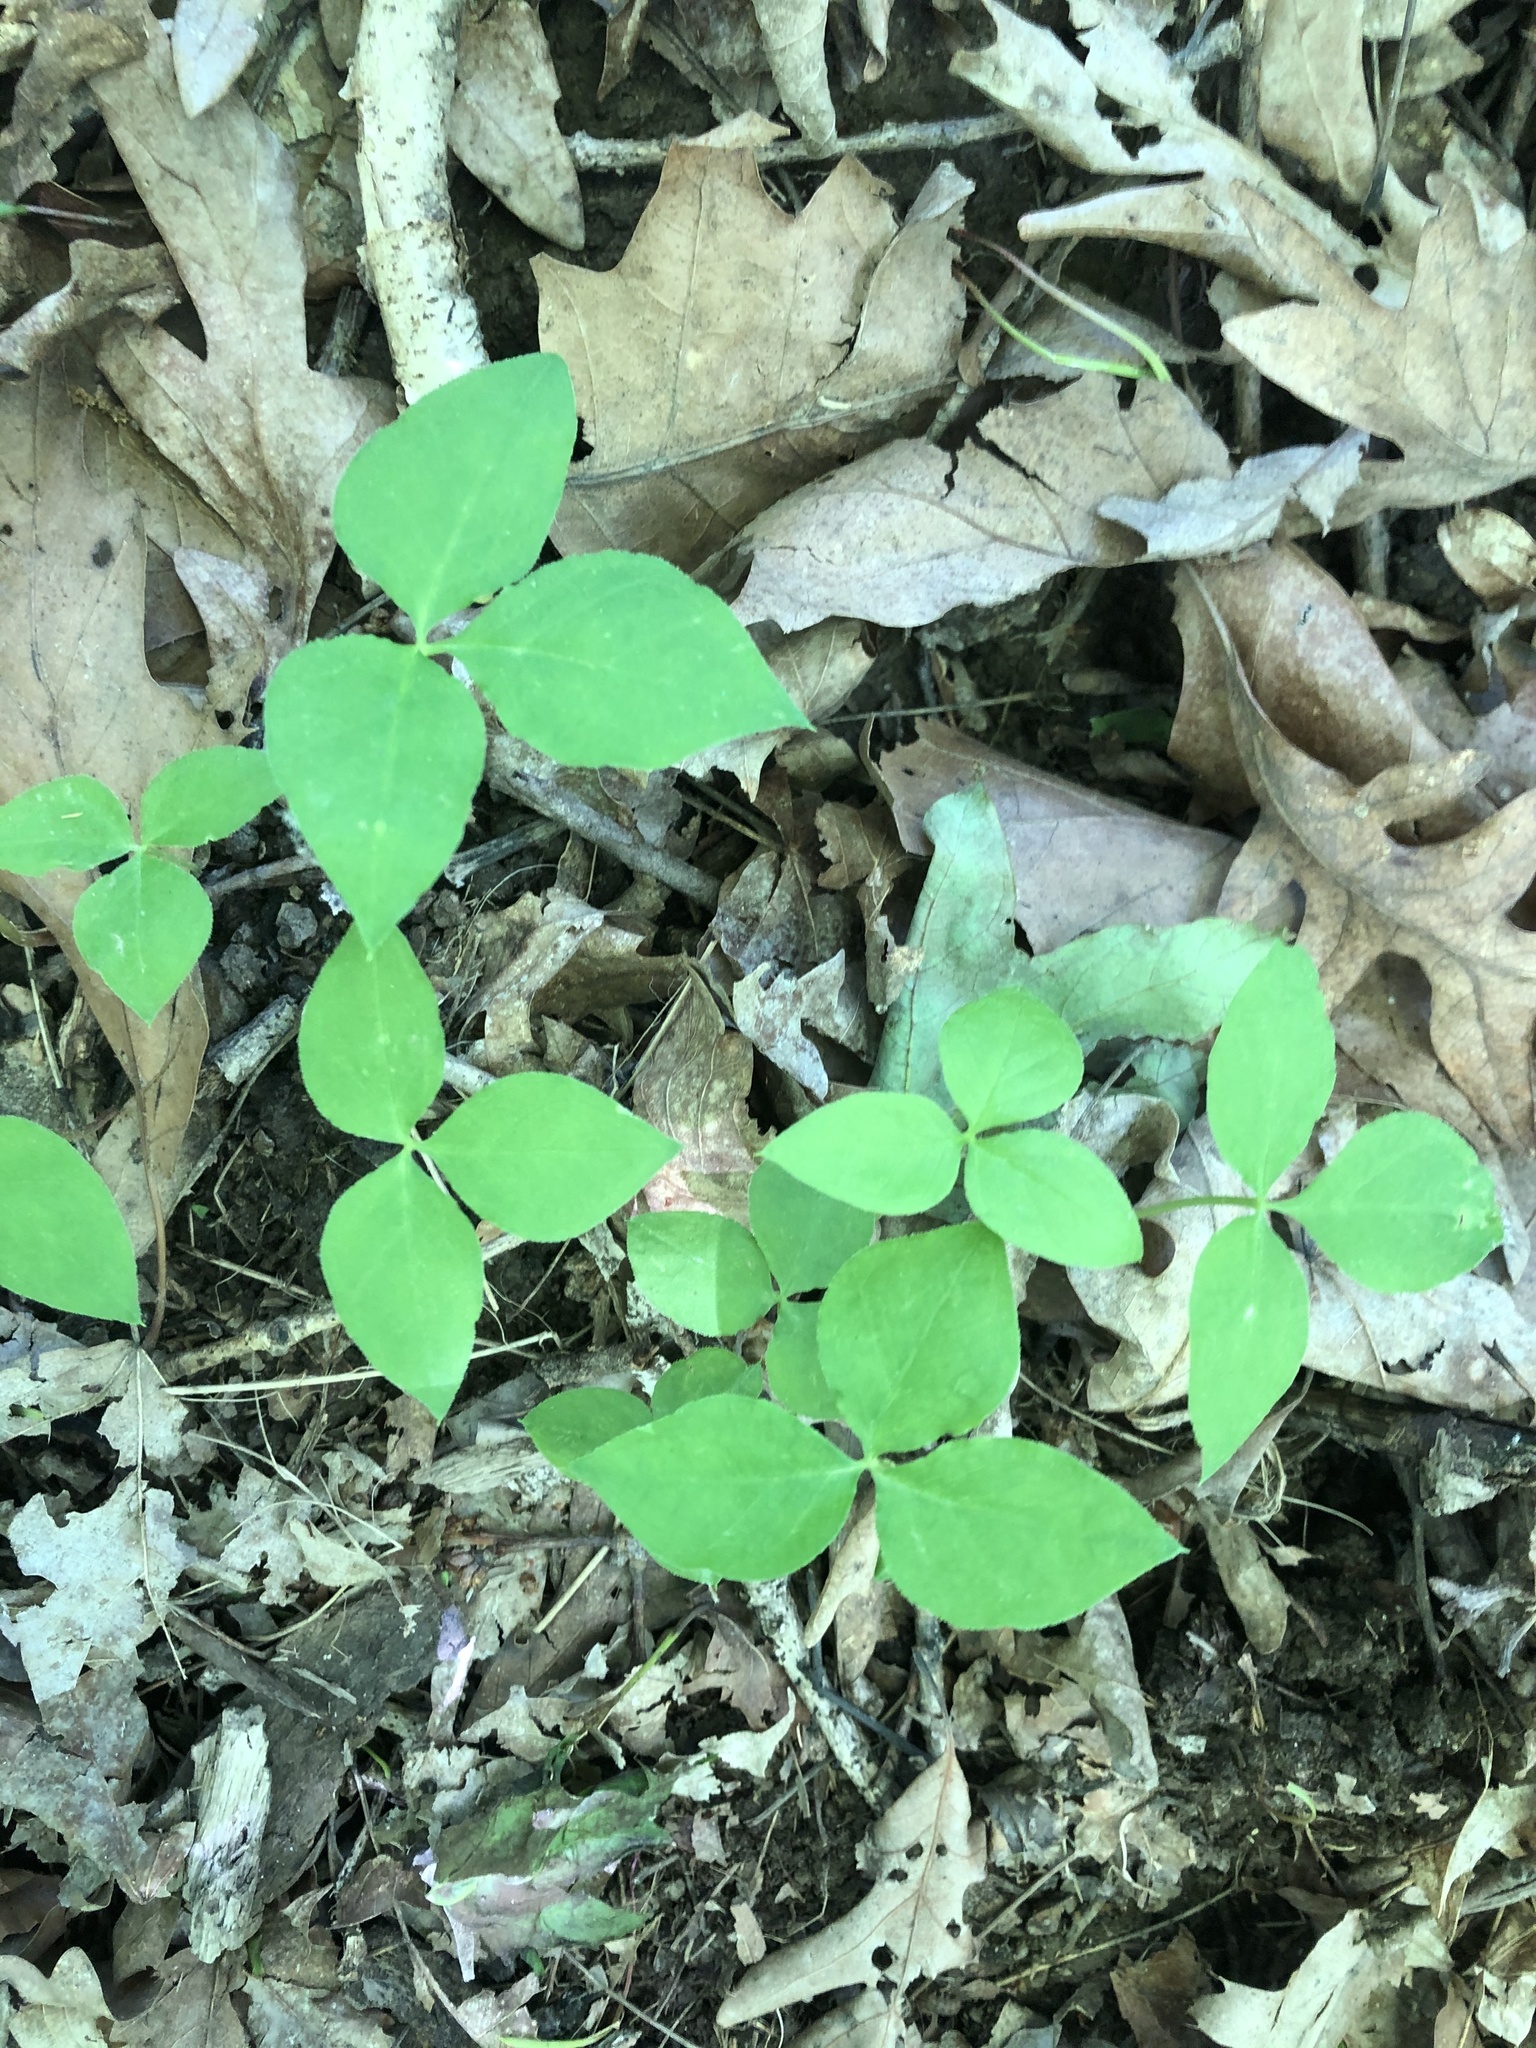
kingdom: Plantae
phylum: Tracheophyta
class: Liliopsida
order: Alismatales
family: Araceae
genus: Arisaema
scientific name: Arisaema triphyllum
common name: Jack-in-the-pulpit
